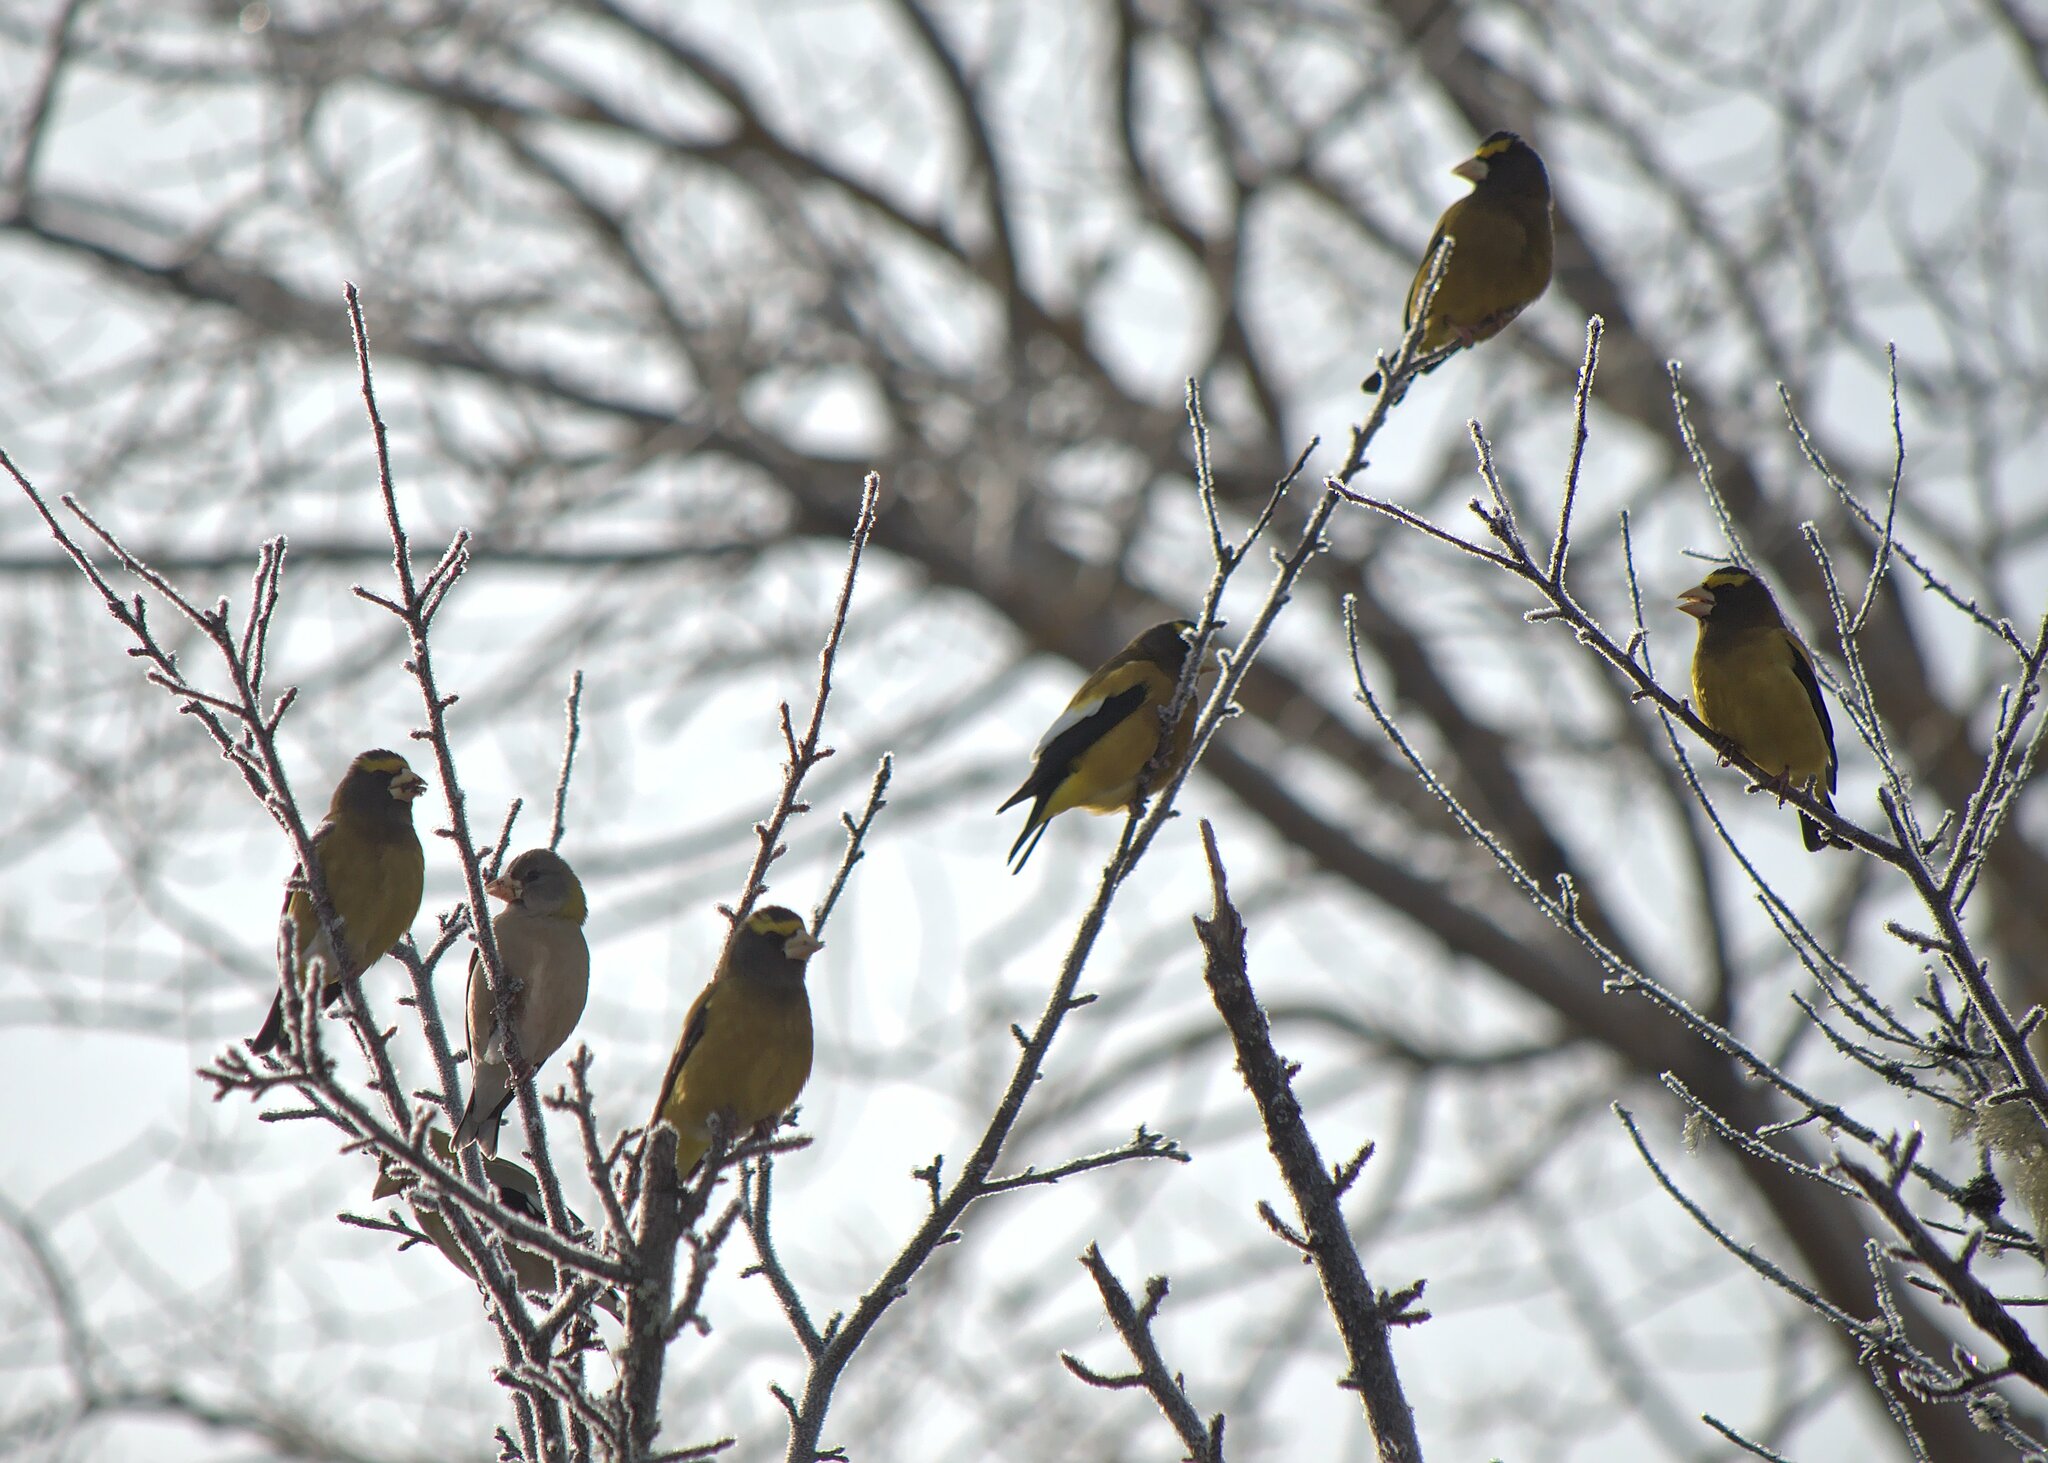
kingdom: Animalia
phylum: Chordata
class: Aves
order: Passeriformes
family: Fringillidae
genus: Hesperiphona
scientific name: Hesperiphona vespertina
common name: Evening grosbeak
